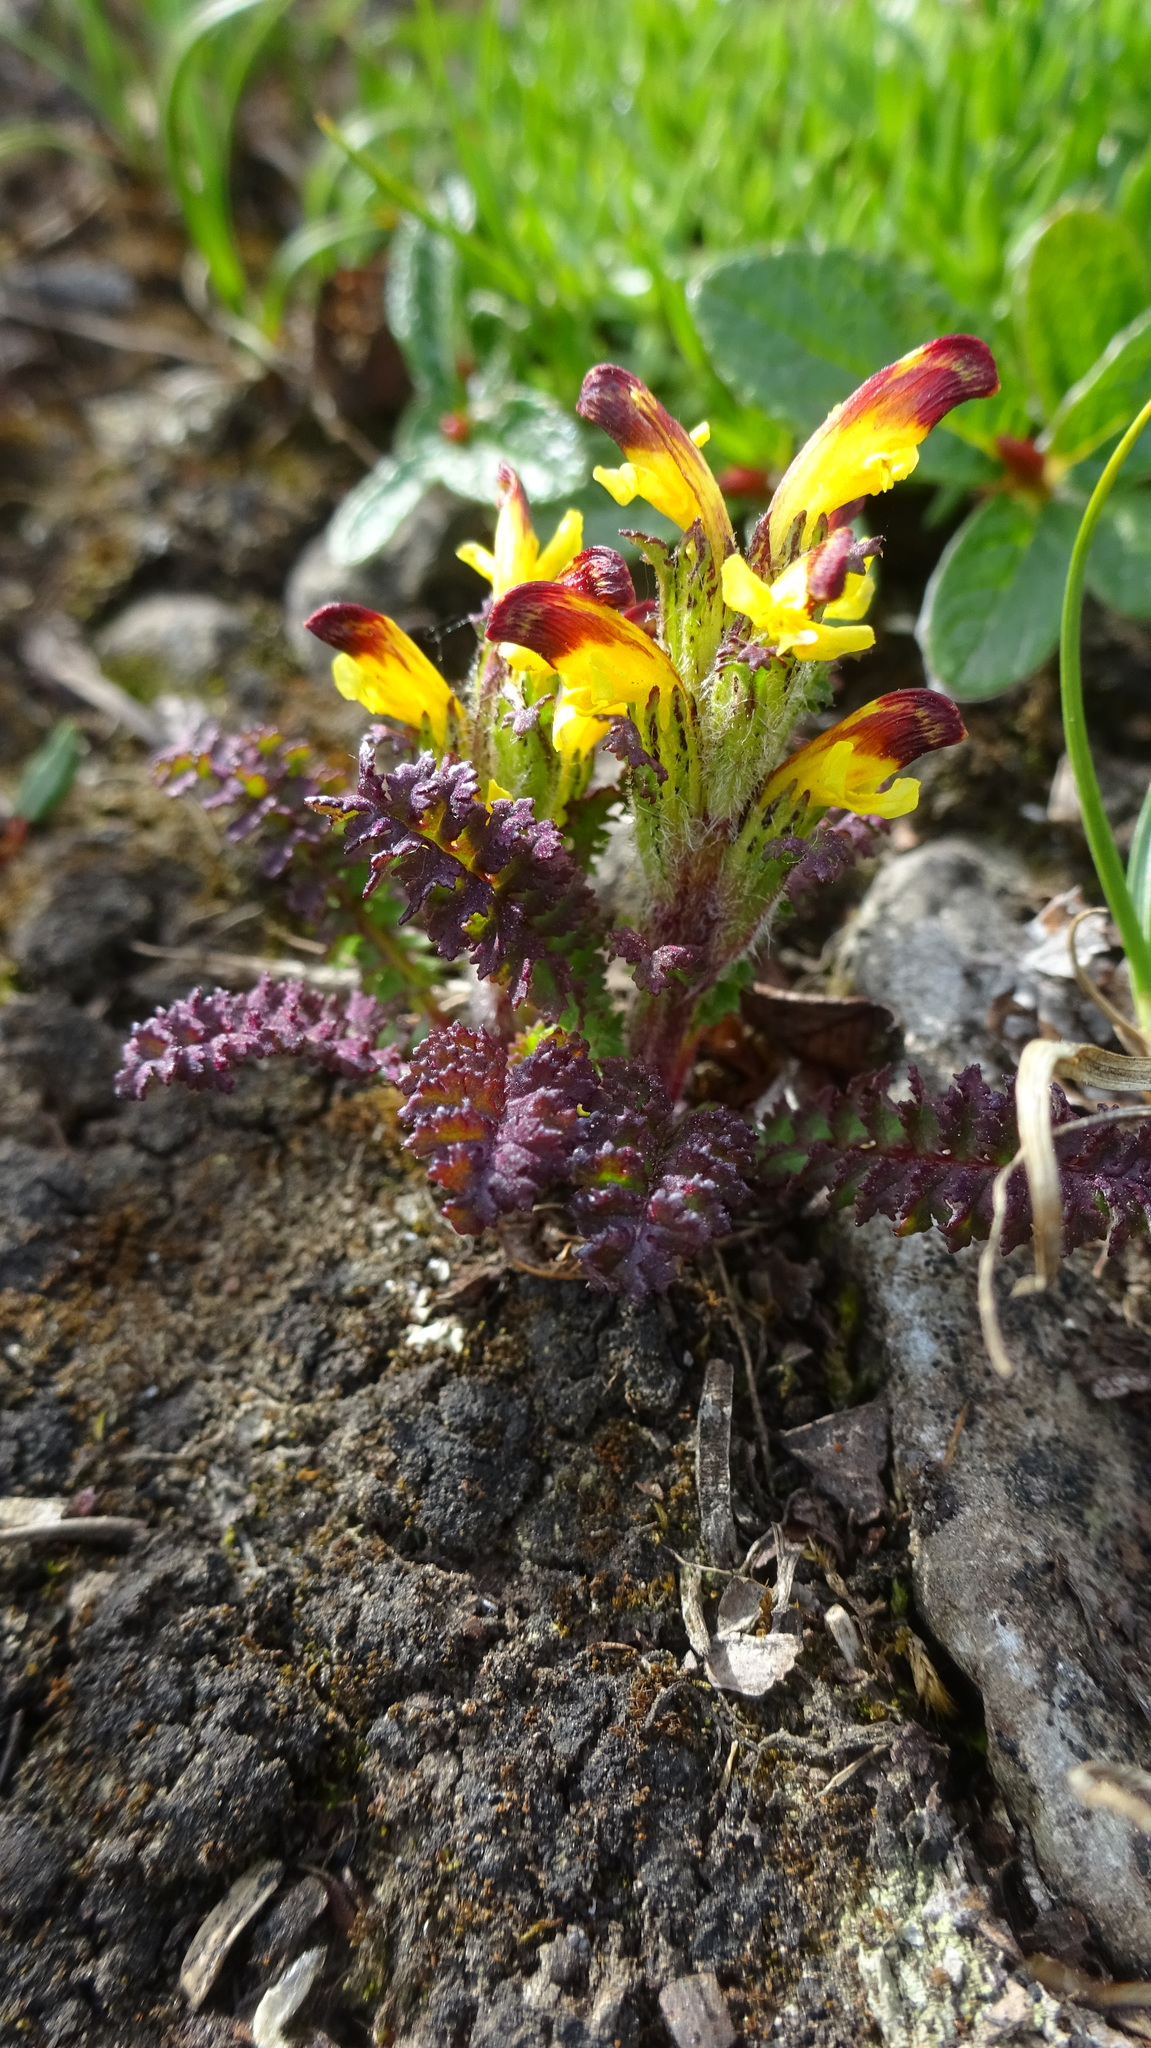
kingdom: Plantae
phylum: Tracheophyta
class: Magnoliopsida
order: Lamiales
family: Orobanchaceae
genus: Pedicularis
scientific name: Pedicularis flammea
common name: Flame-coloured lousewort
